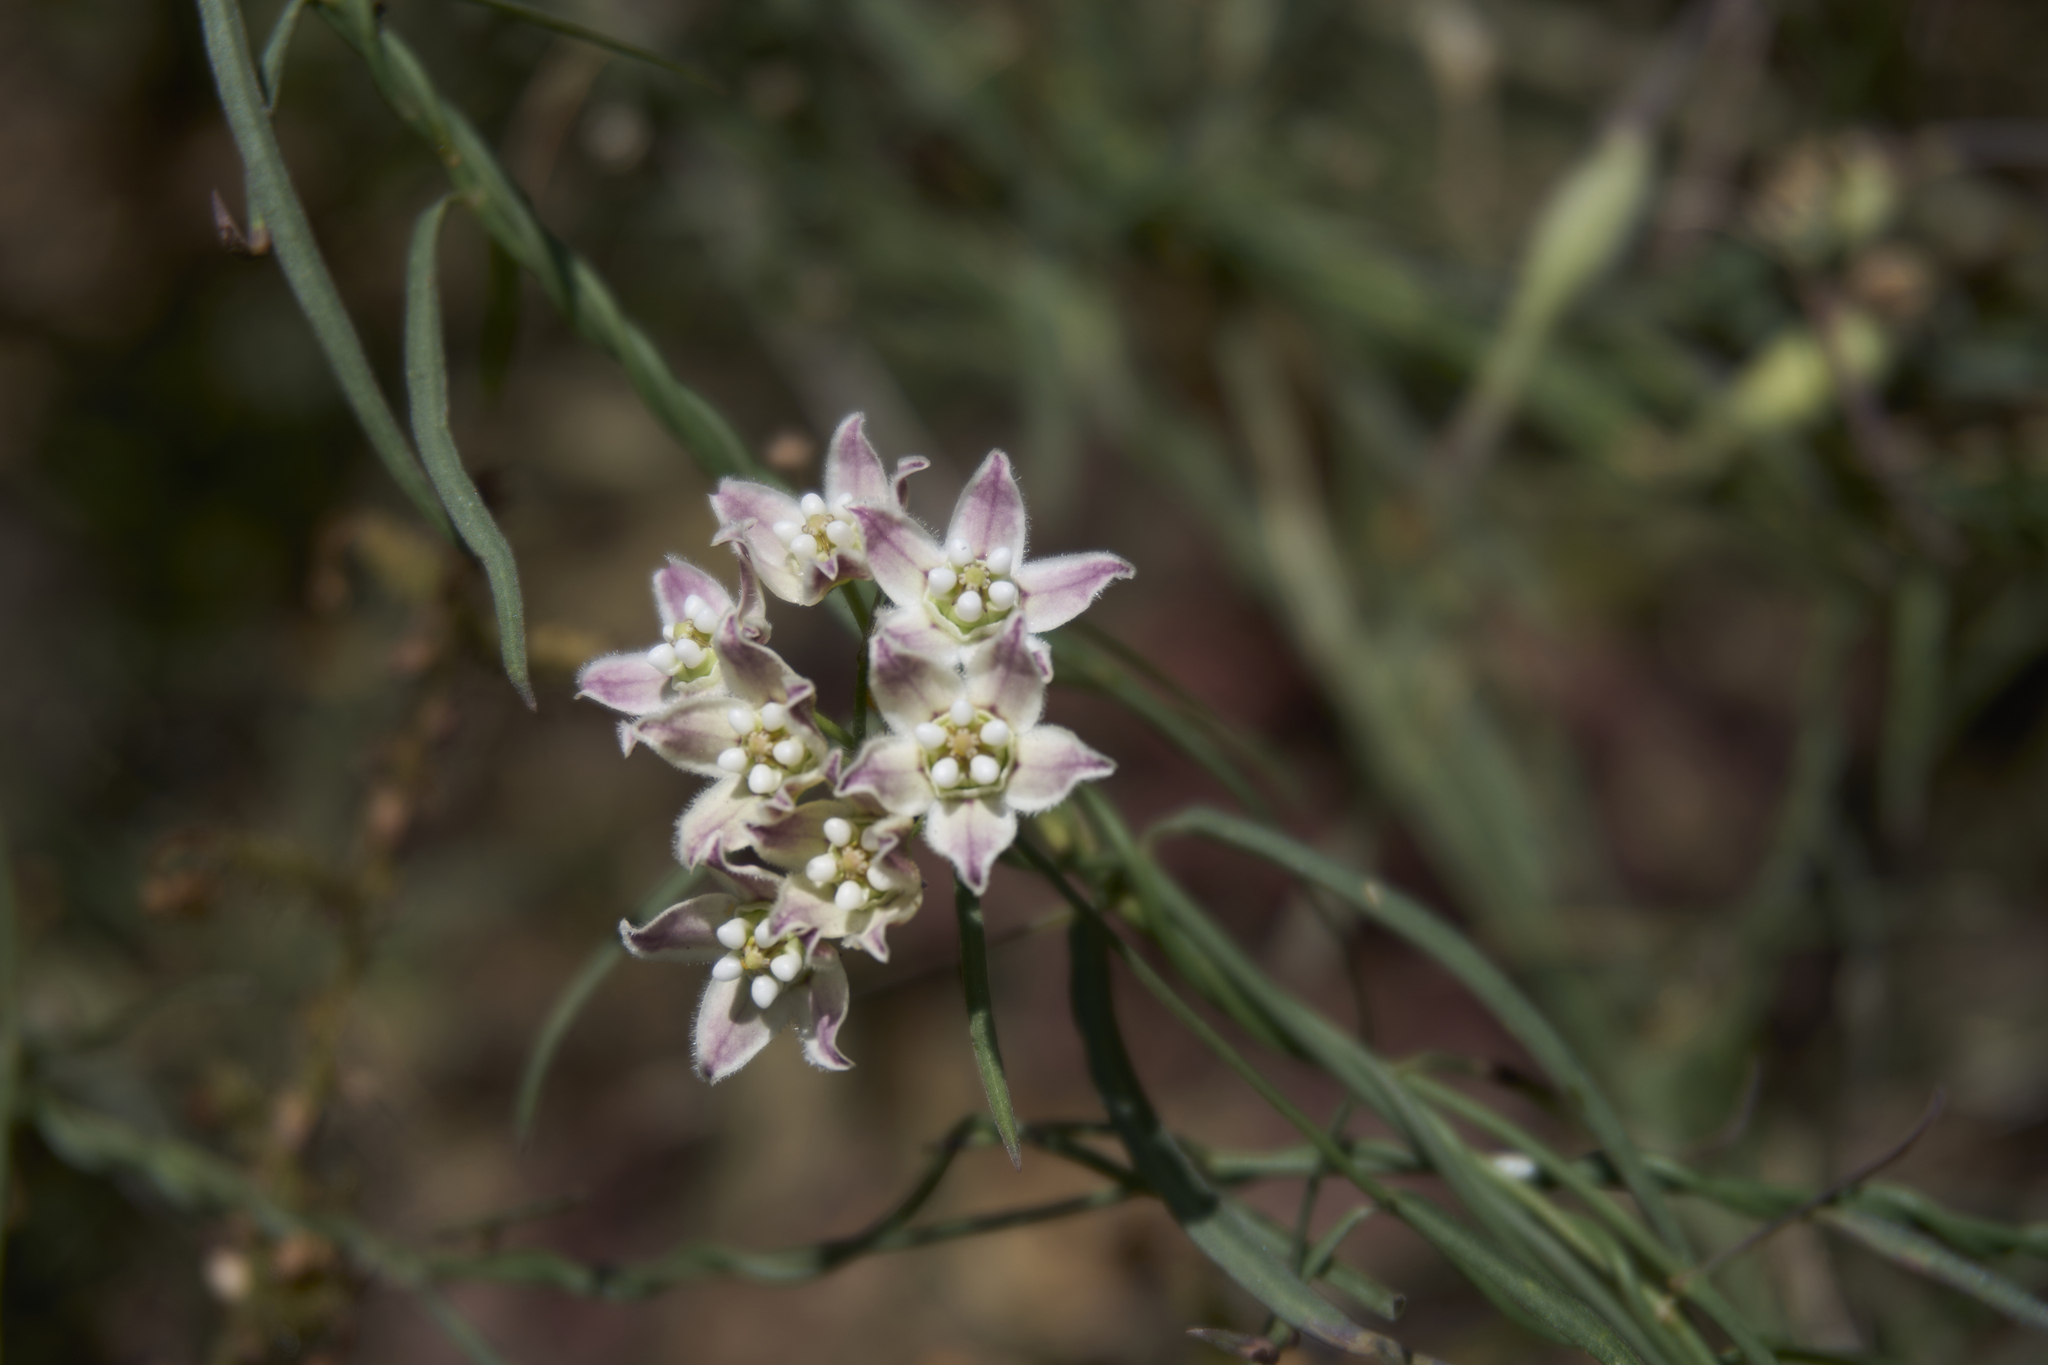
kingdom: Plantae
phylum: Tracheophyta
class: Magnoliopsida
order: Gentianales
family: Apocynaceae
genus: Funastrum
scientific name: Funastrum heterophyllum
